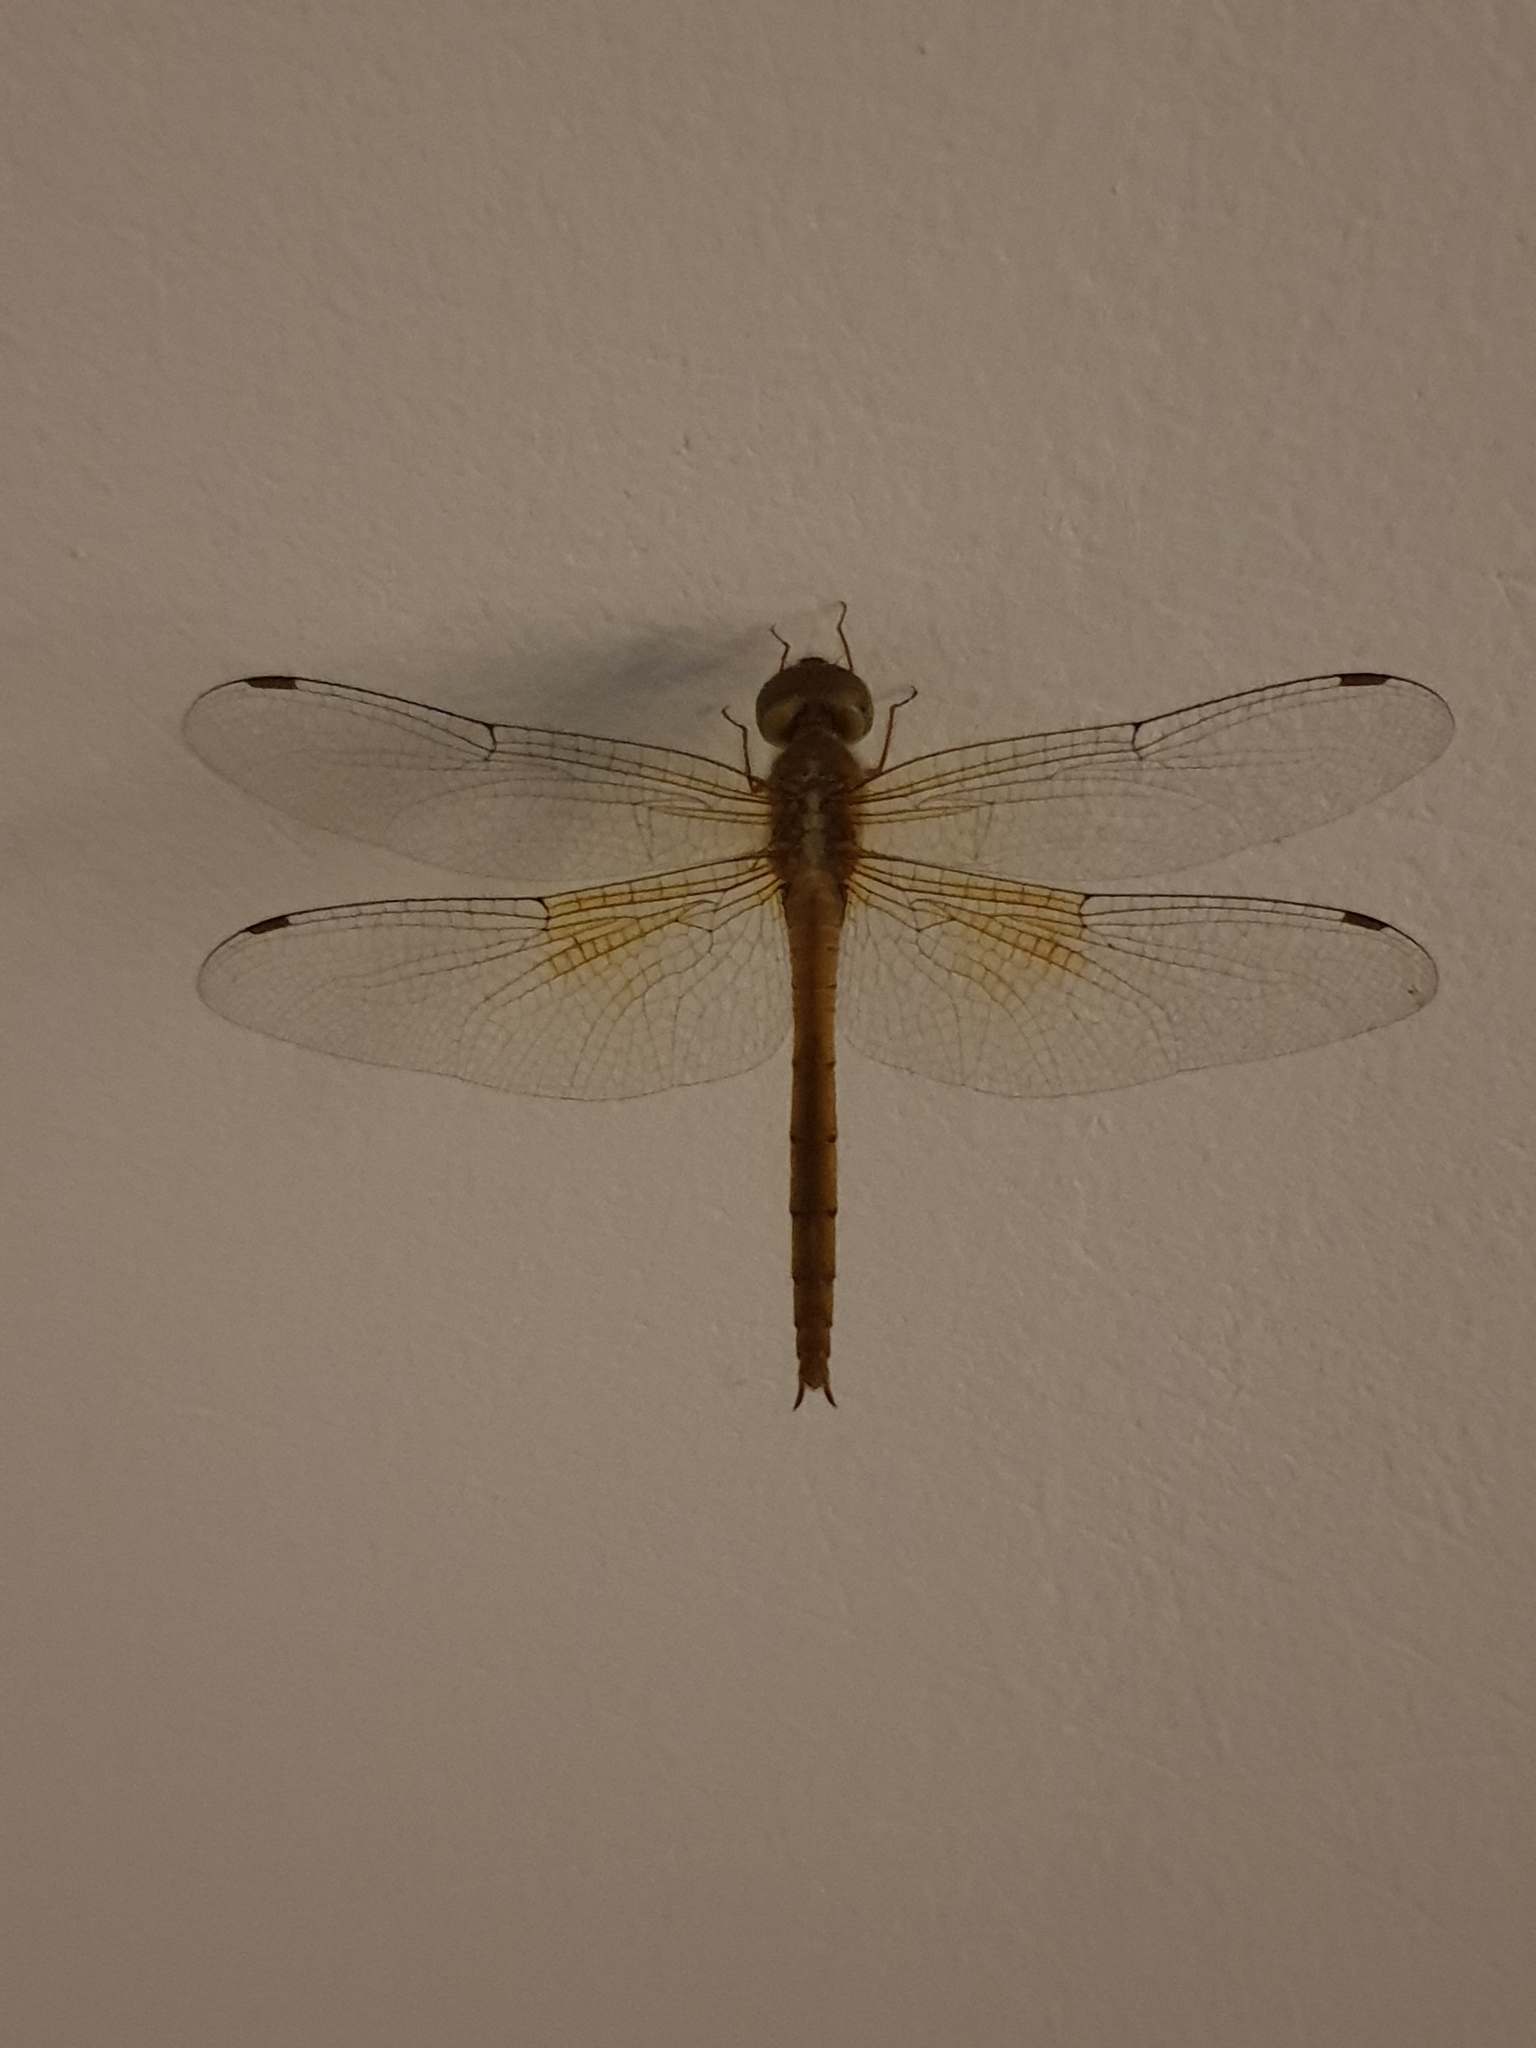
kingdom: Animalia
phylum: Arthropoda
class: Insecta
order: Odonata
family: Libellulidae
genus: Tholymis
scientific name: Tholymis tillarga
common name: Coral-tailed cloud wing
